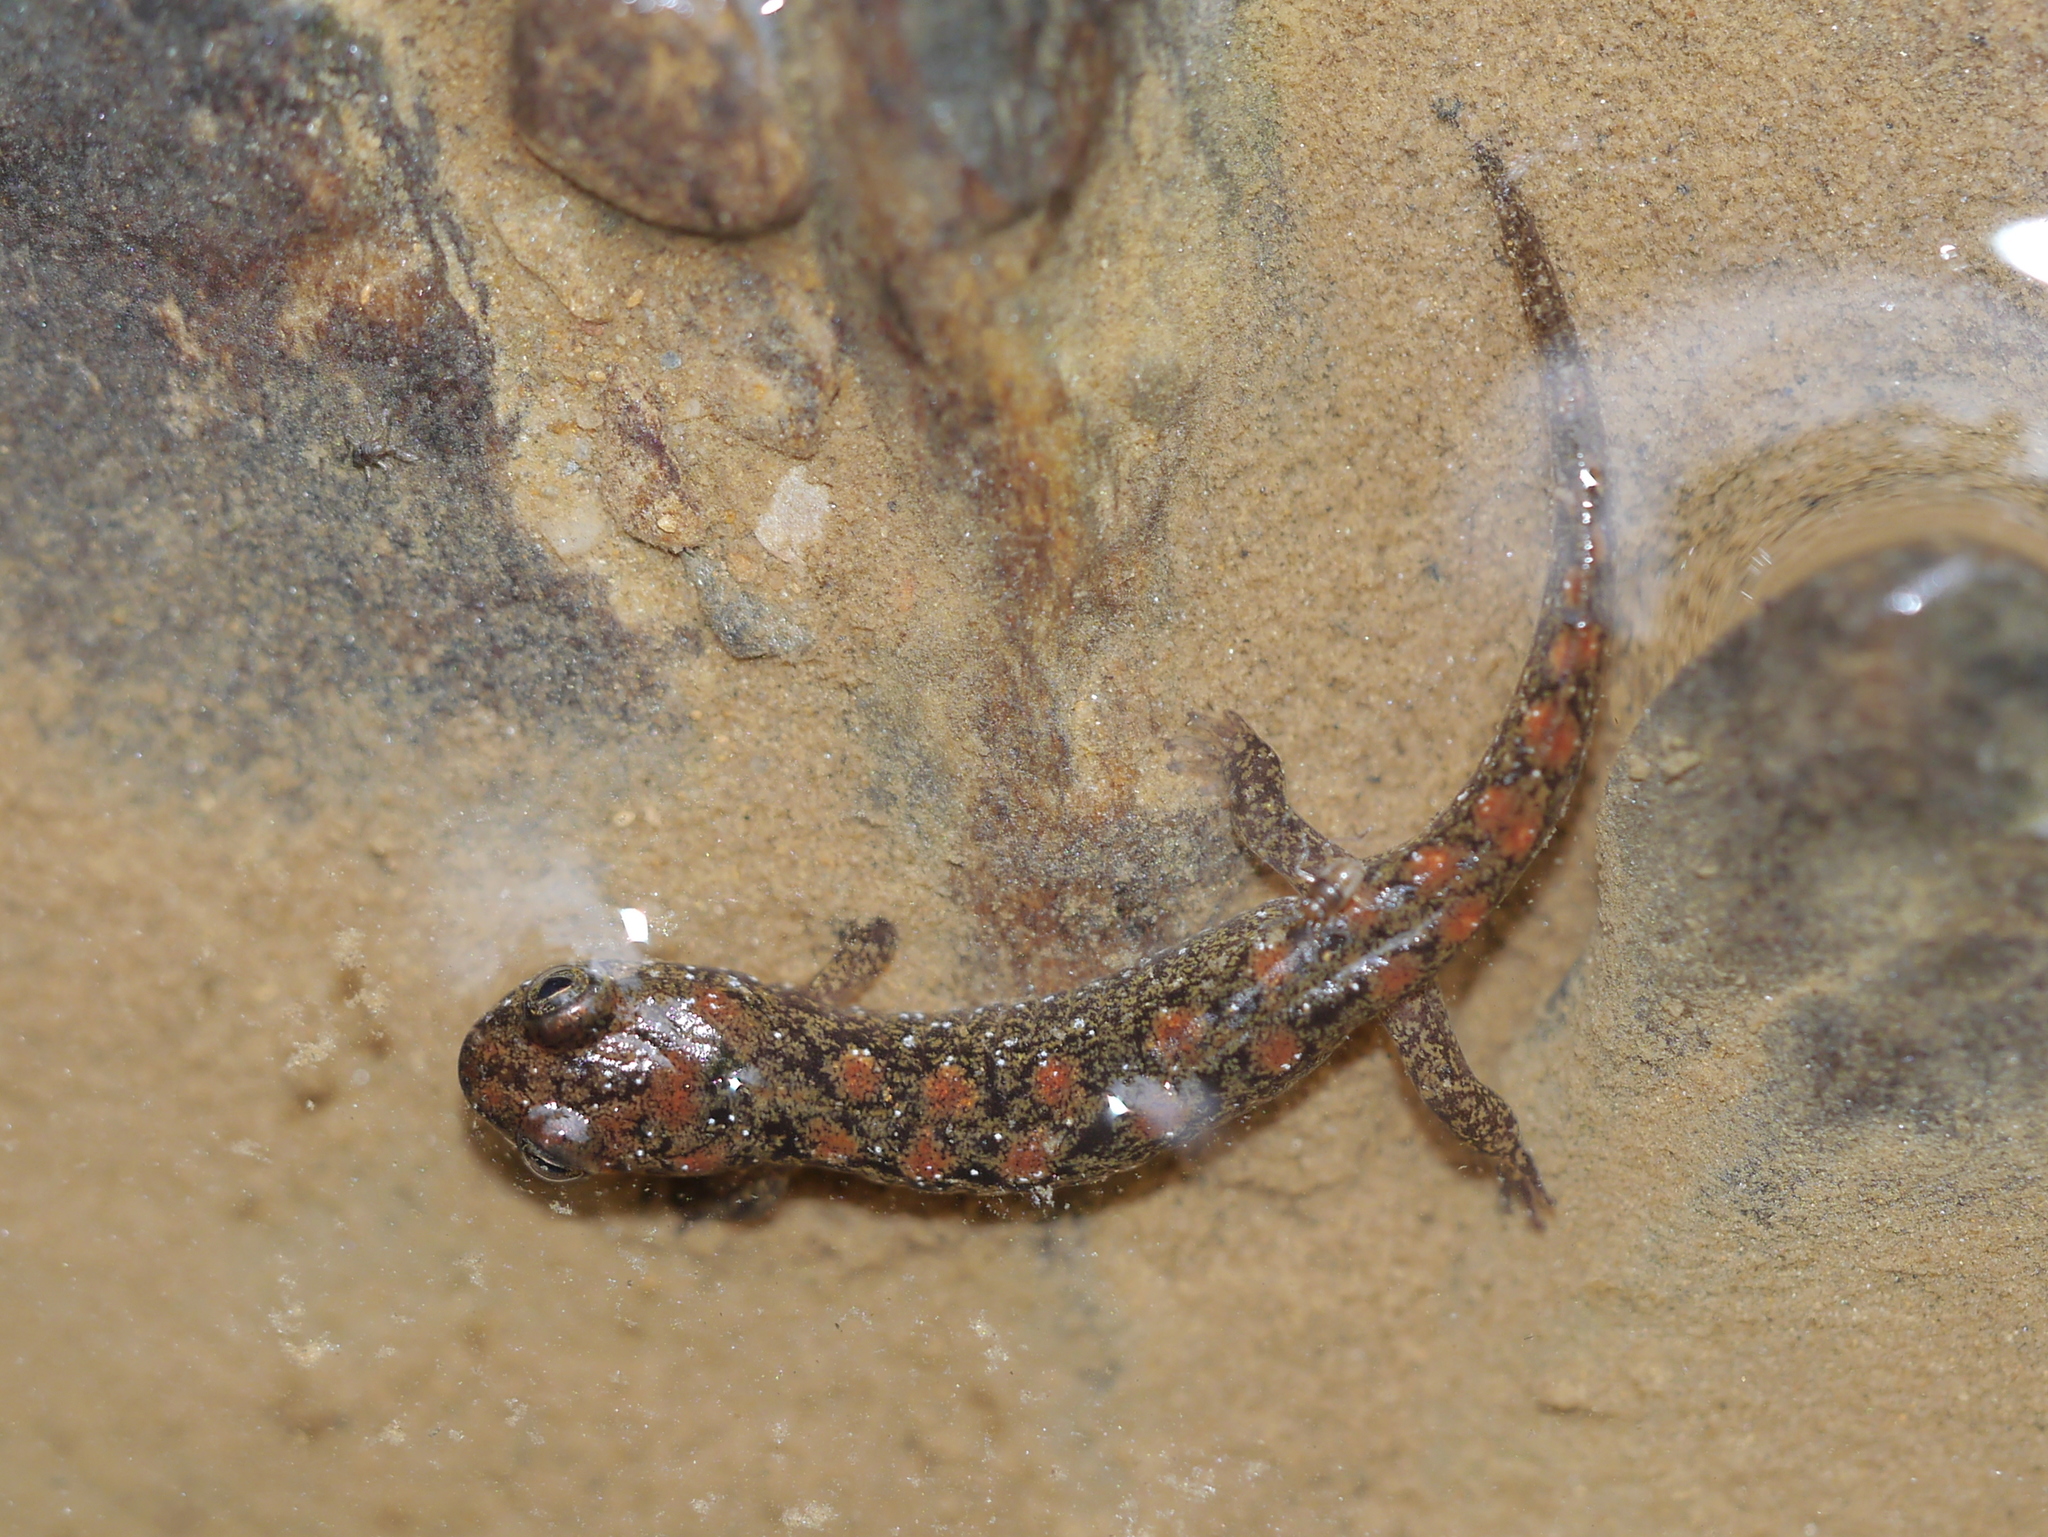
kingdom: Animalia
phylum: Chordata
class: Amphibia
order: Caudata
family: Plethodontidae
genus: Desmognathus
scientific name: Desmognathus monticola
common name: Seal salamander
